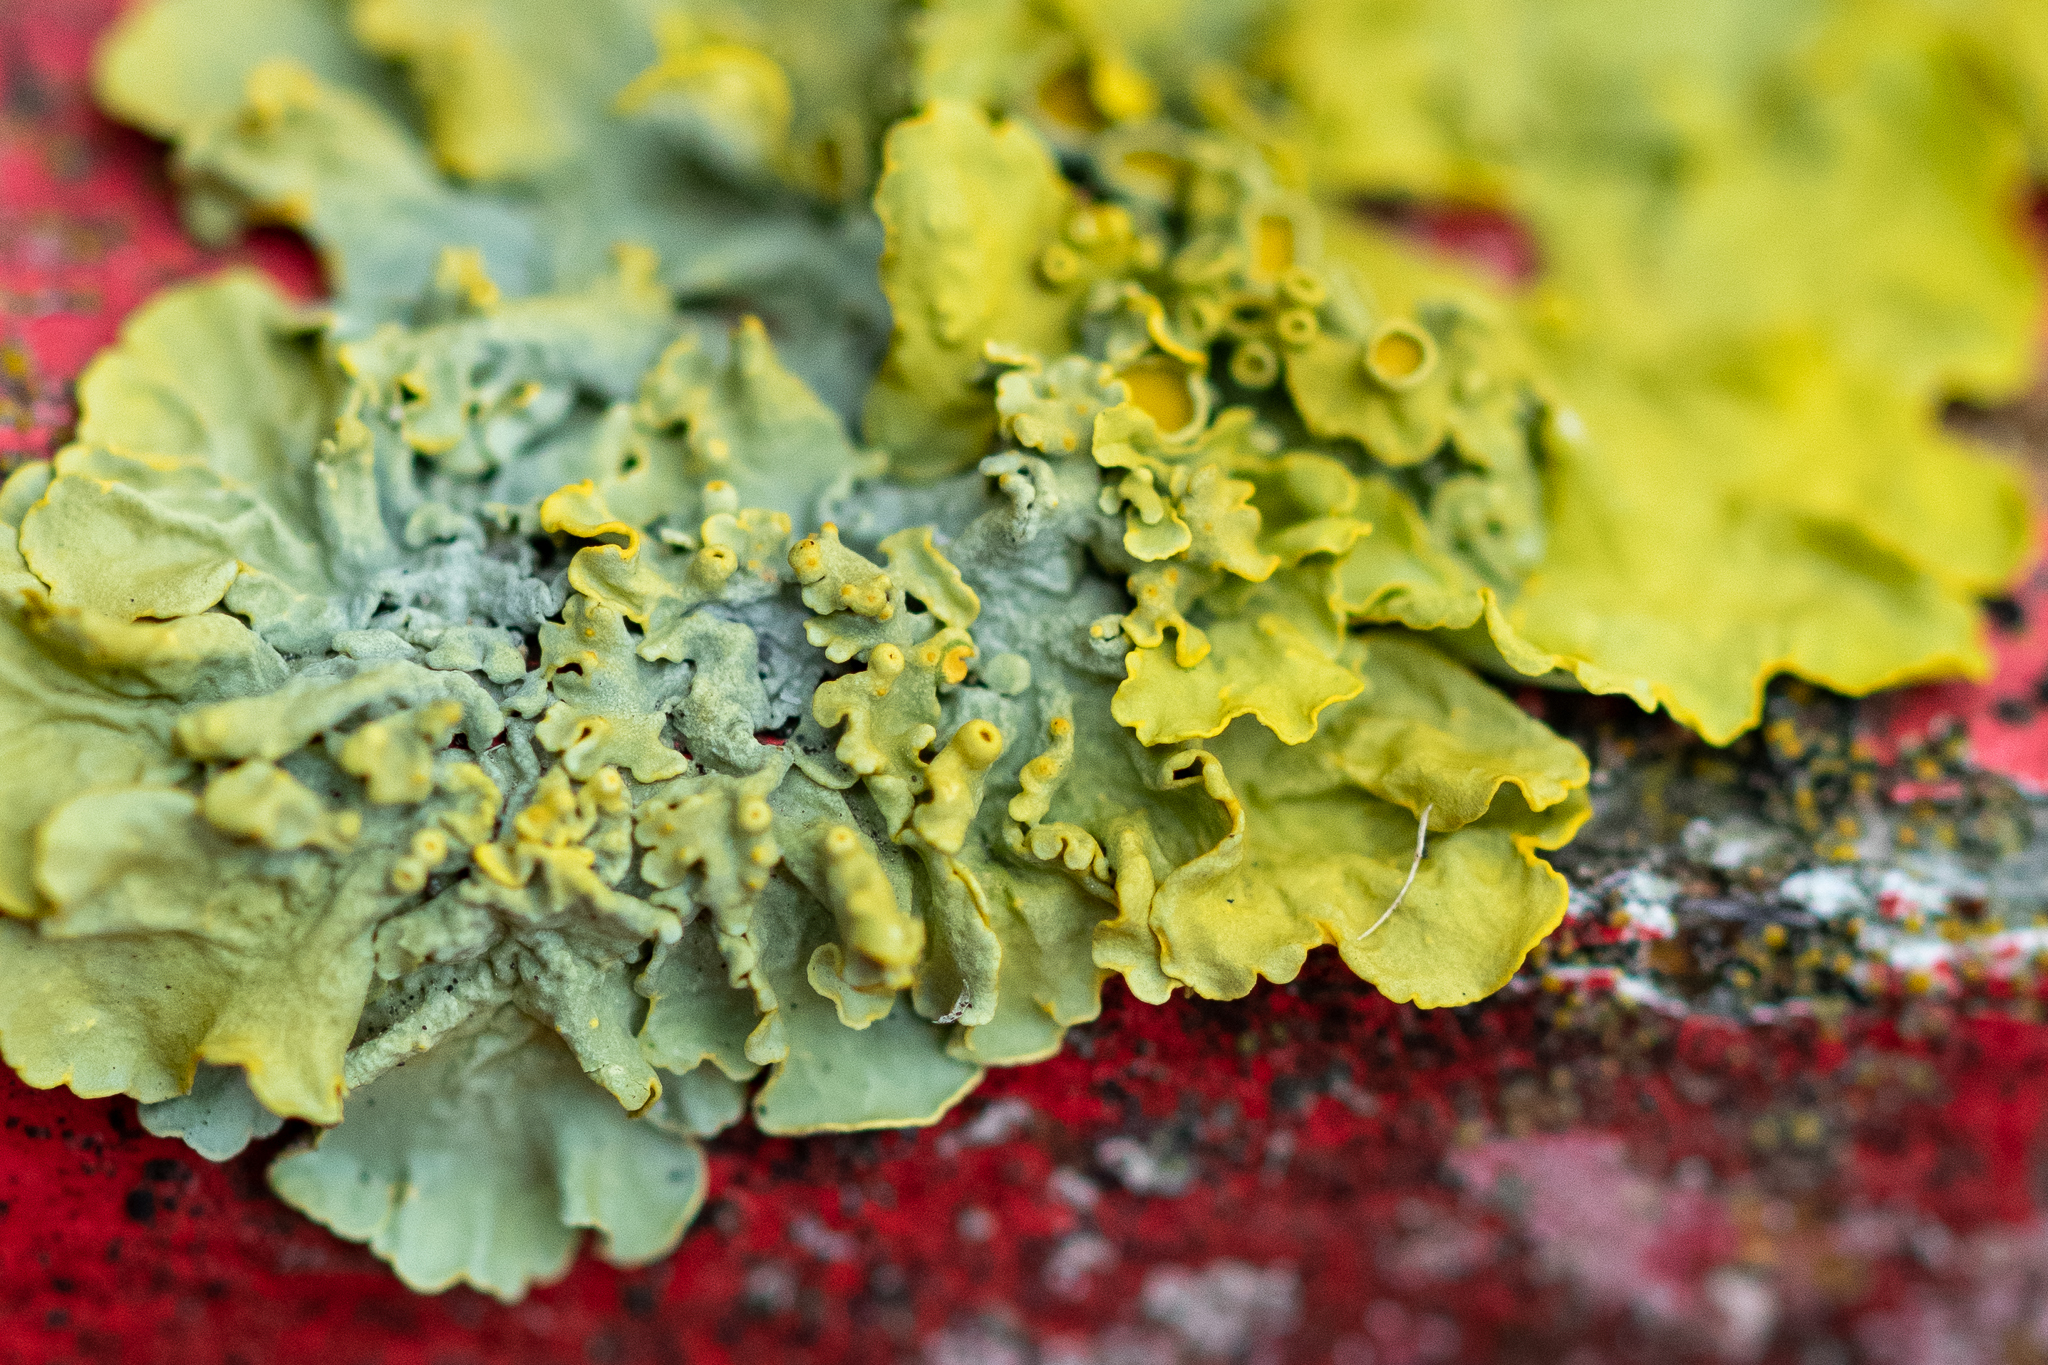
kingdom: Fungi
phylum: Ascomycota
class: Lecanoromycetes
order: Teloschistales
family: Teloschistaceae
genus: Xanthoria
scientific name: Xanthoria parietina
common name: Common orange lichen
